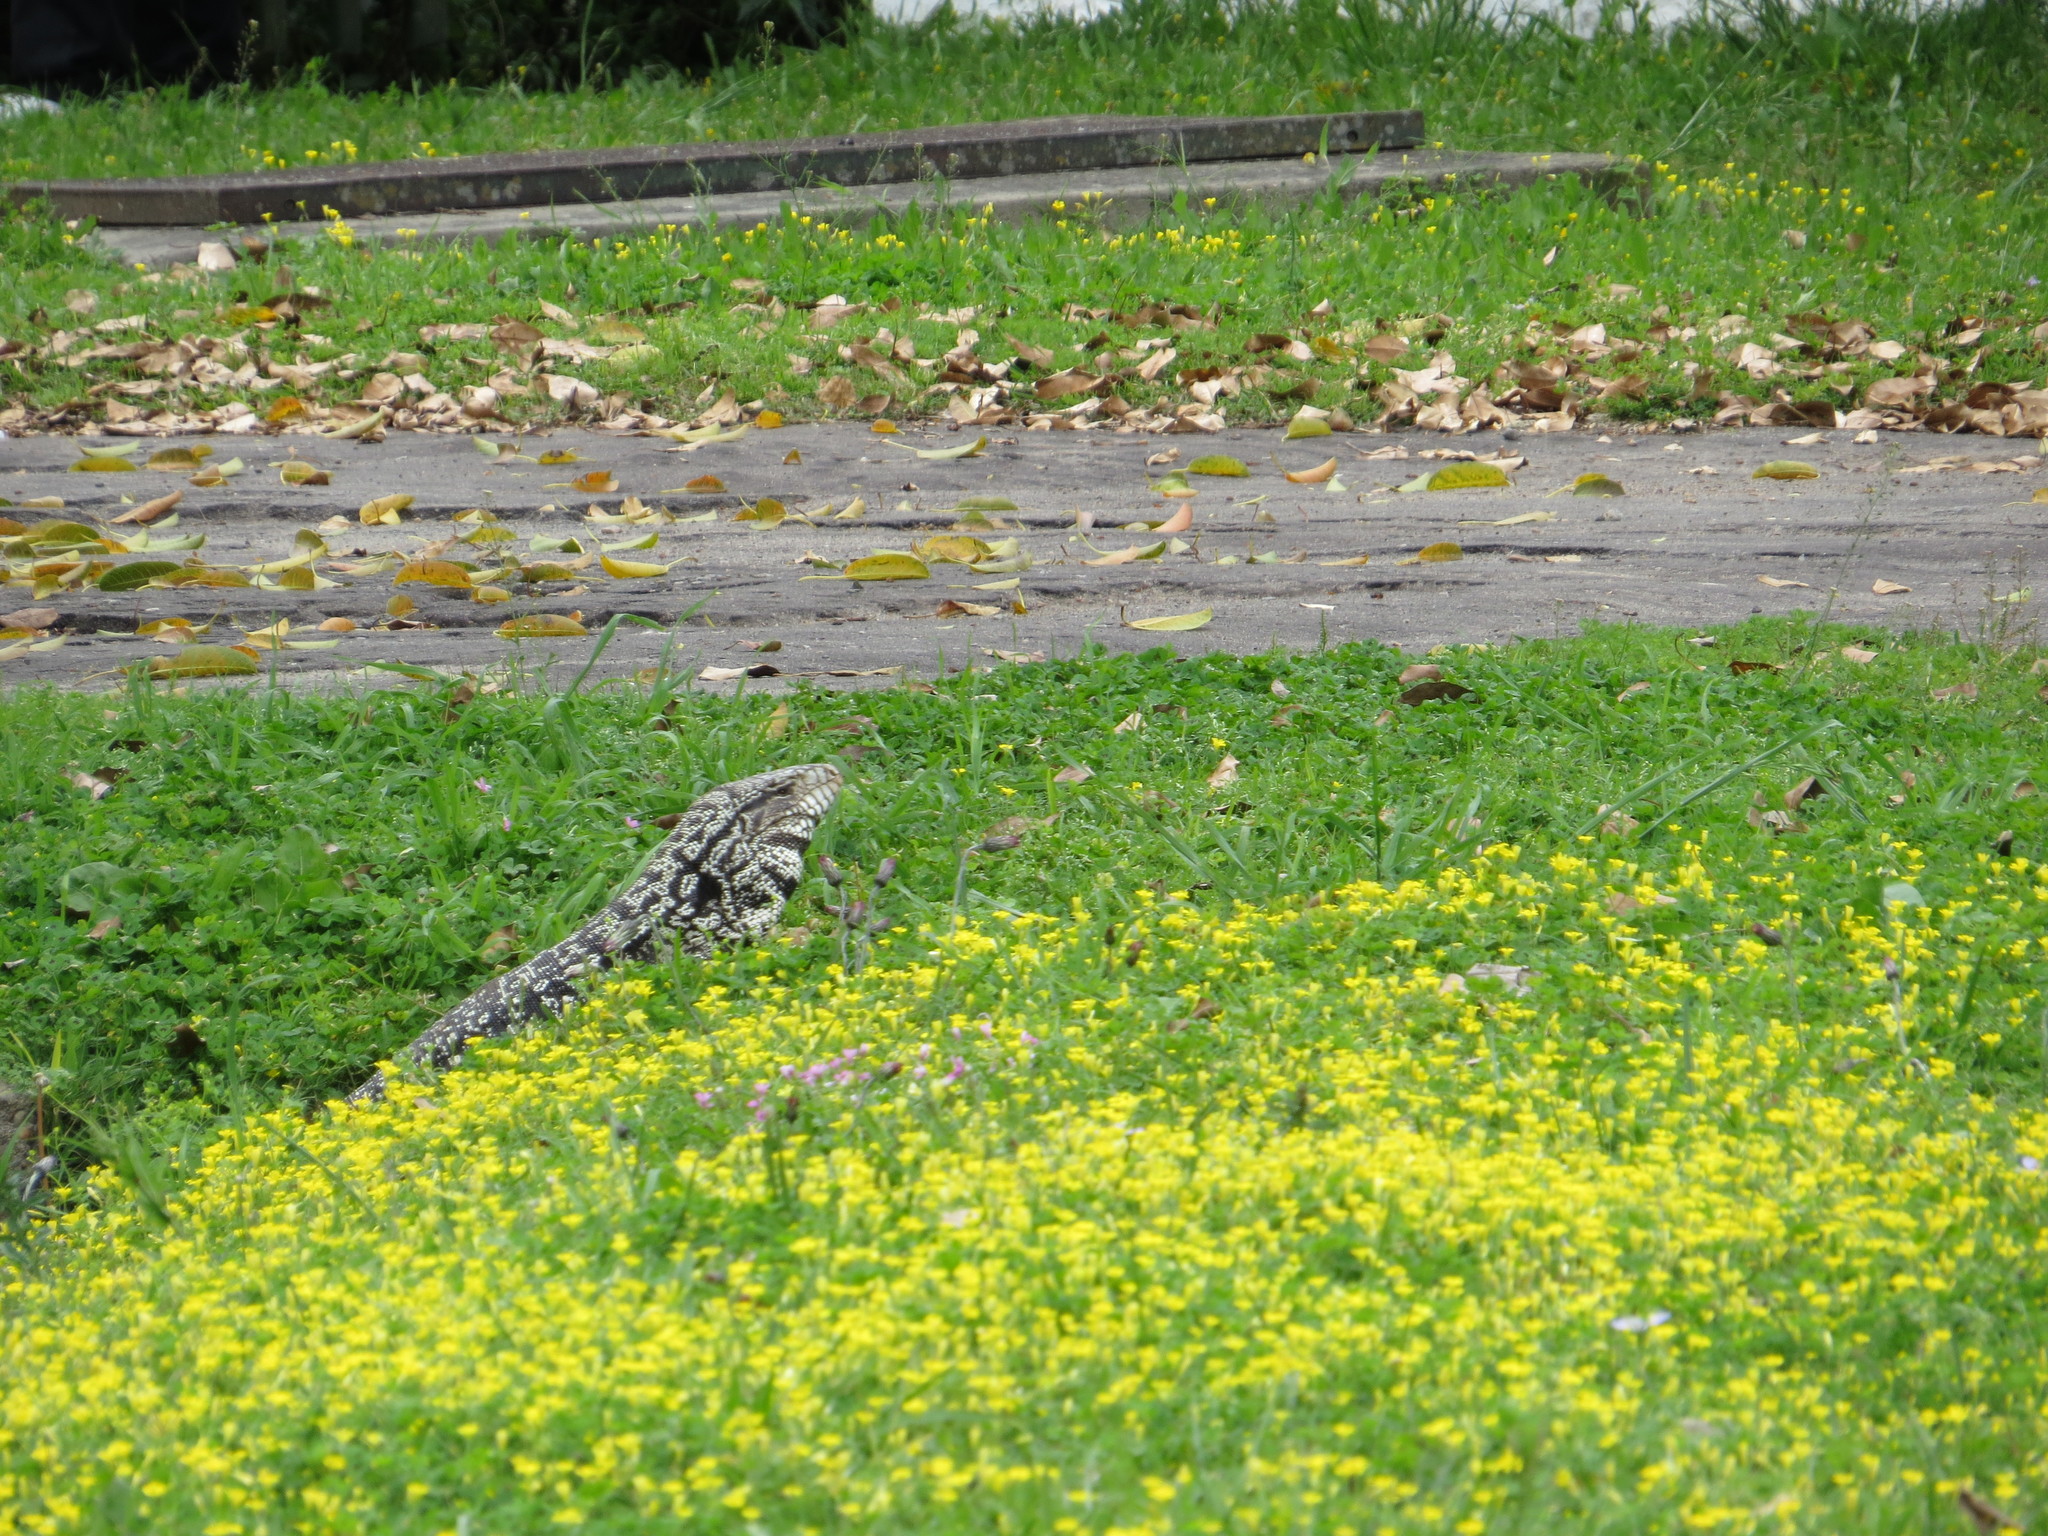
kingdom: Animalia
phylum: Chordata
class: Squamata
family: Teiidae
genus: Salvator
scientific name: Salvator merianae
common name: Argentine black and white tegu
